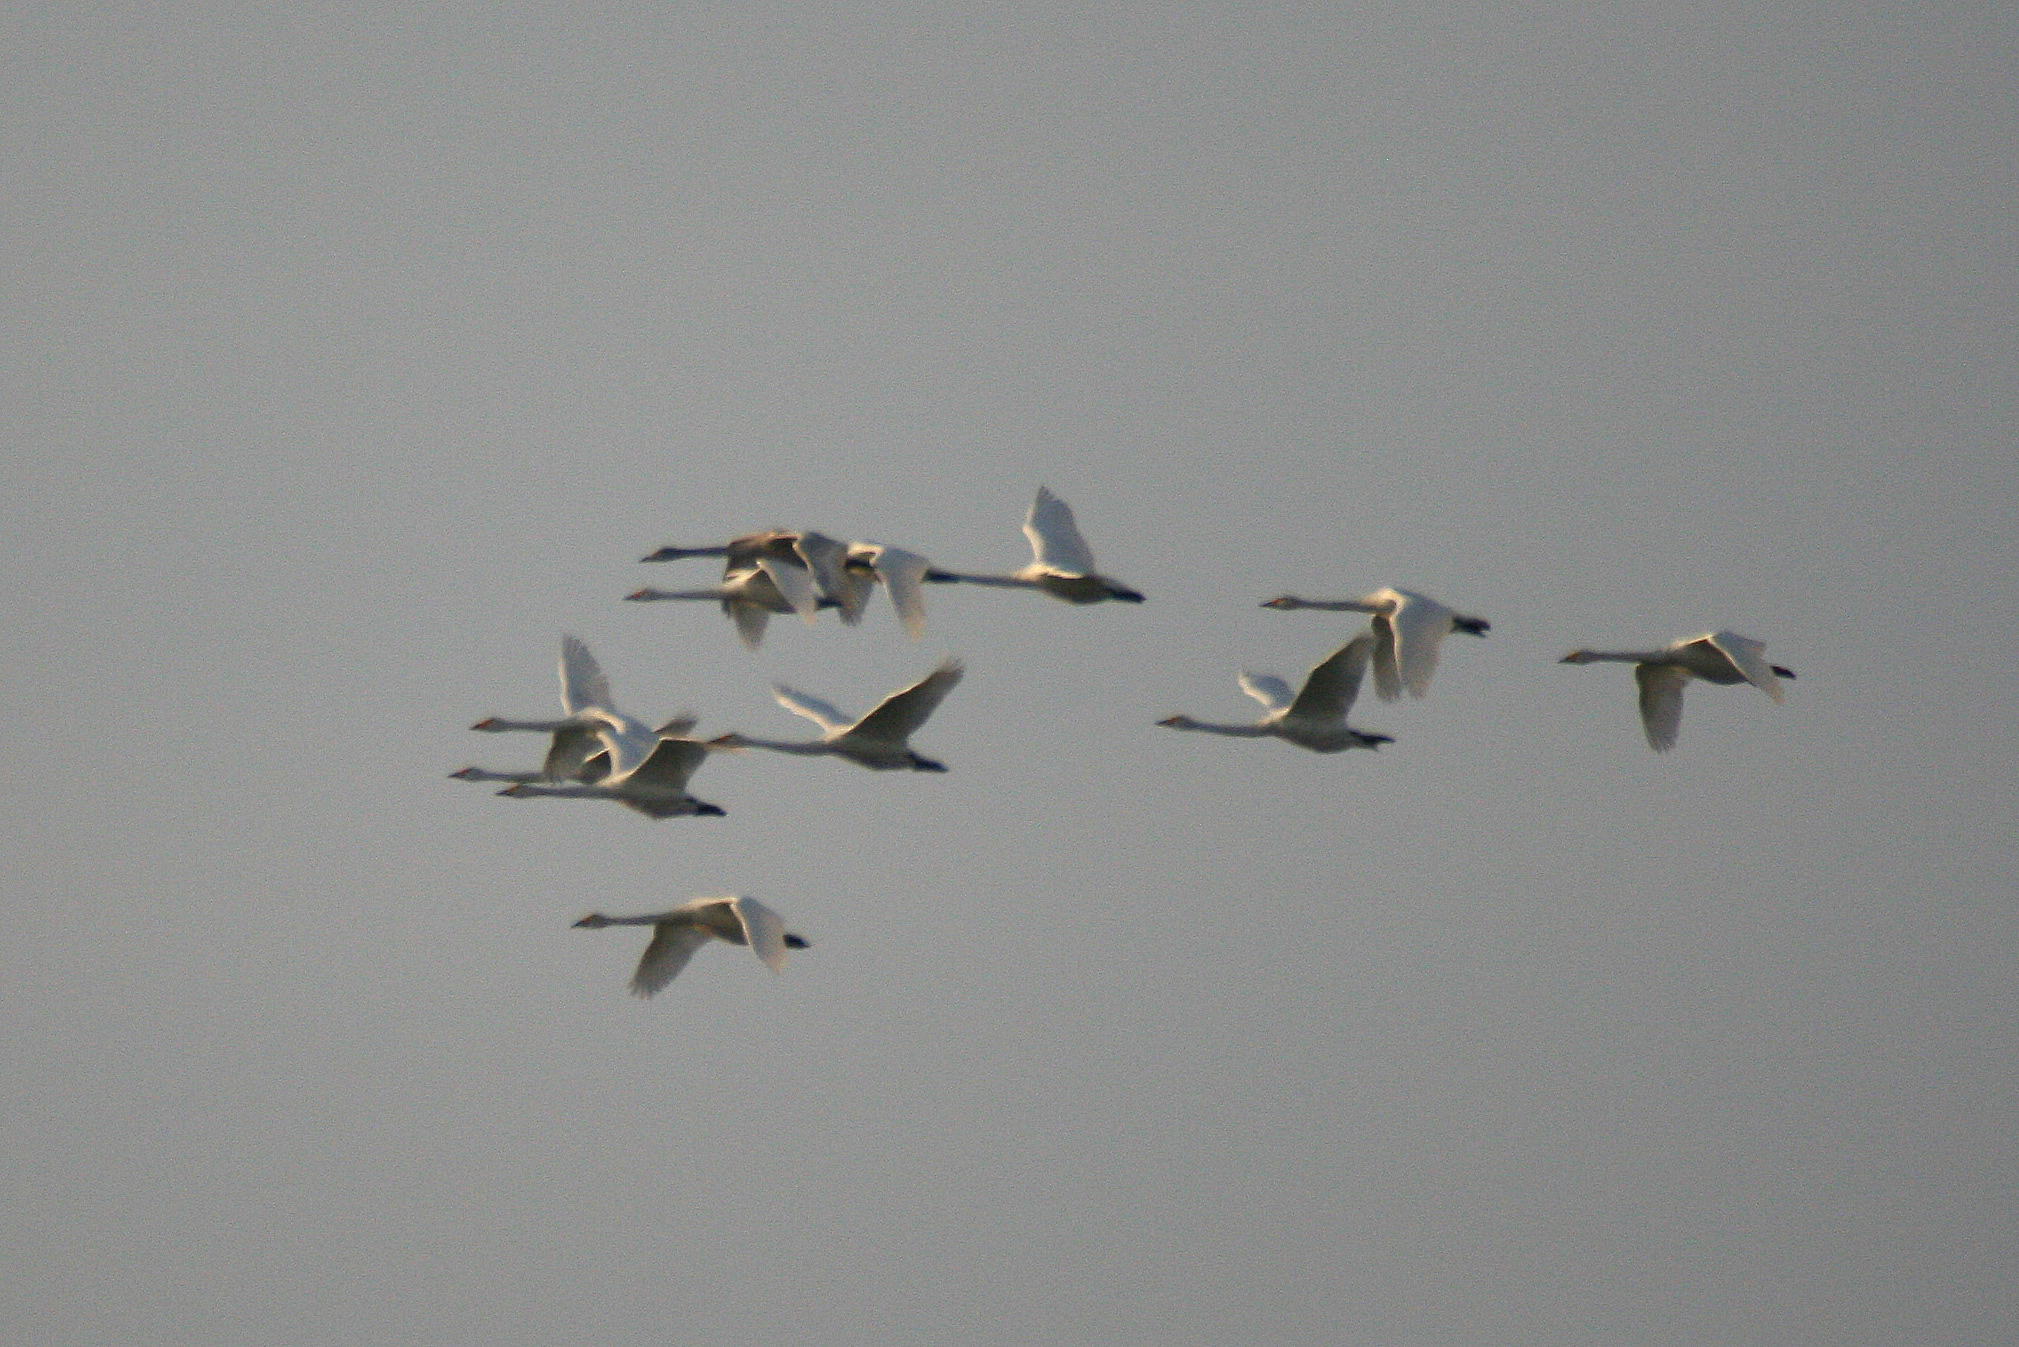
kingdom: Animalia
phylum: Chordata
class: Aves
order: Anseriformes
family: Anatidae
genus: Cygnus
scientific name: Cygnus cygnus
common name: Whooper swan
